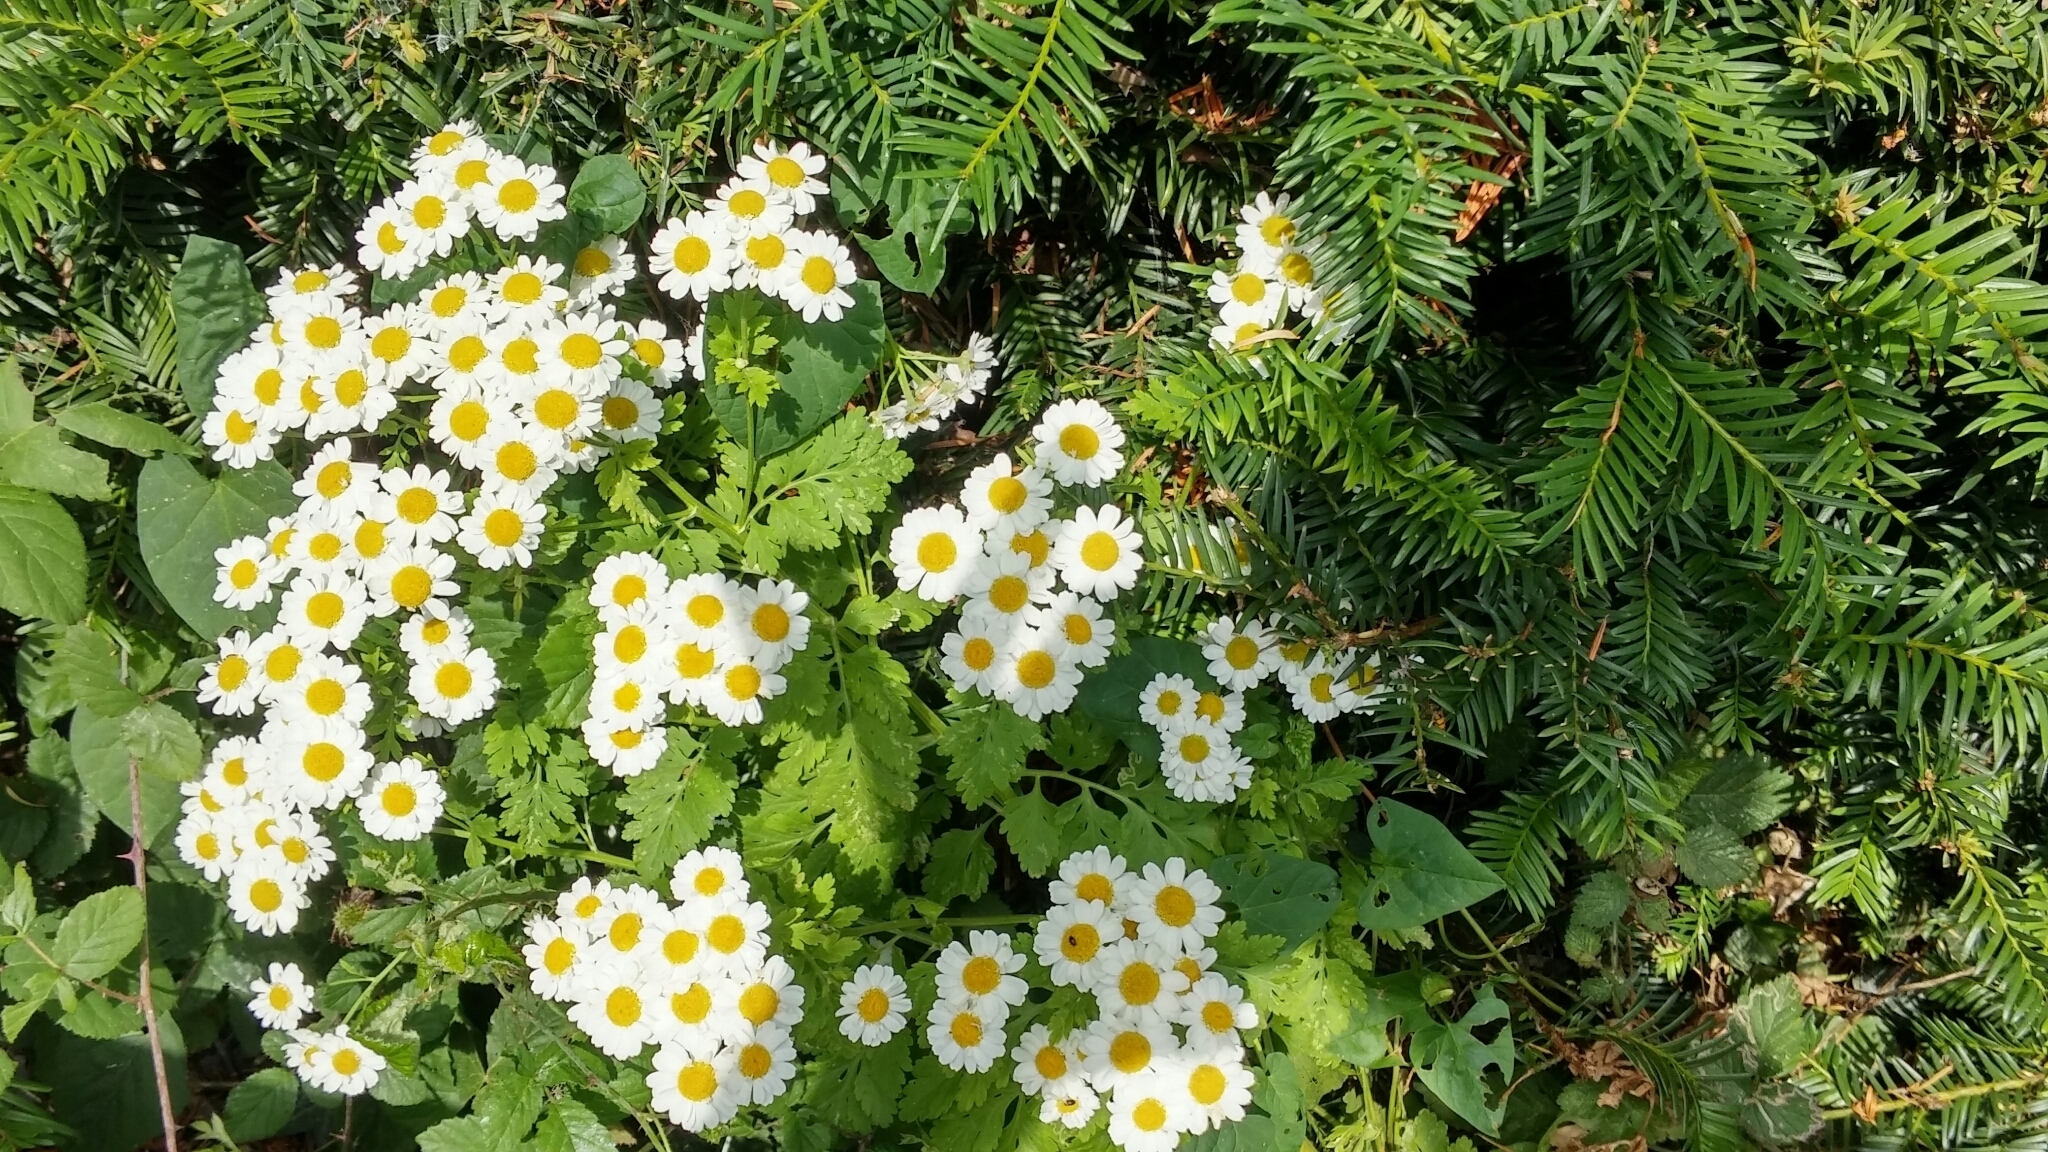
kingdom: Plantae
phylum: Tracheophyta
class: Magnoliopsida
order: Asterales
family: Asteraceae
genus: Tanacetum
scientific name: Tanacetum parthenium
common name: Feverfew
